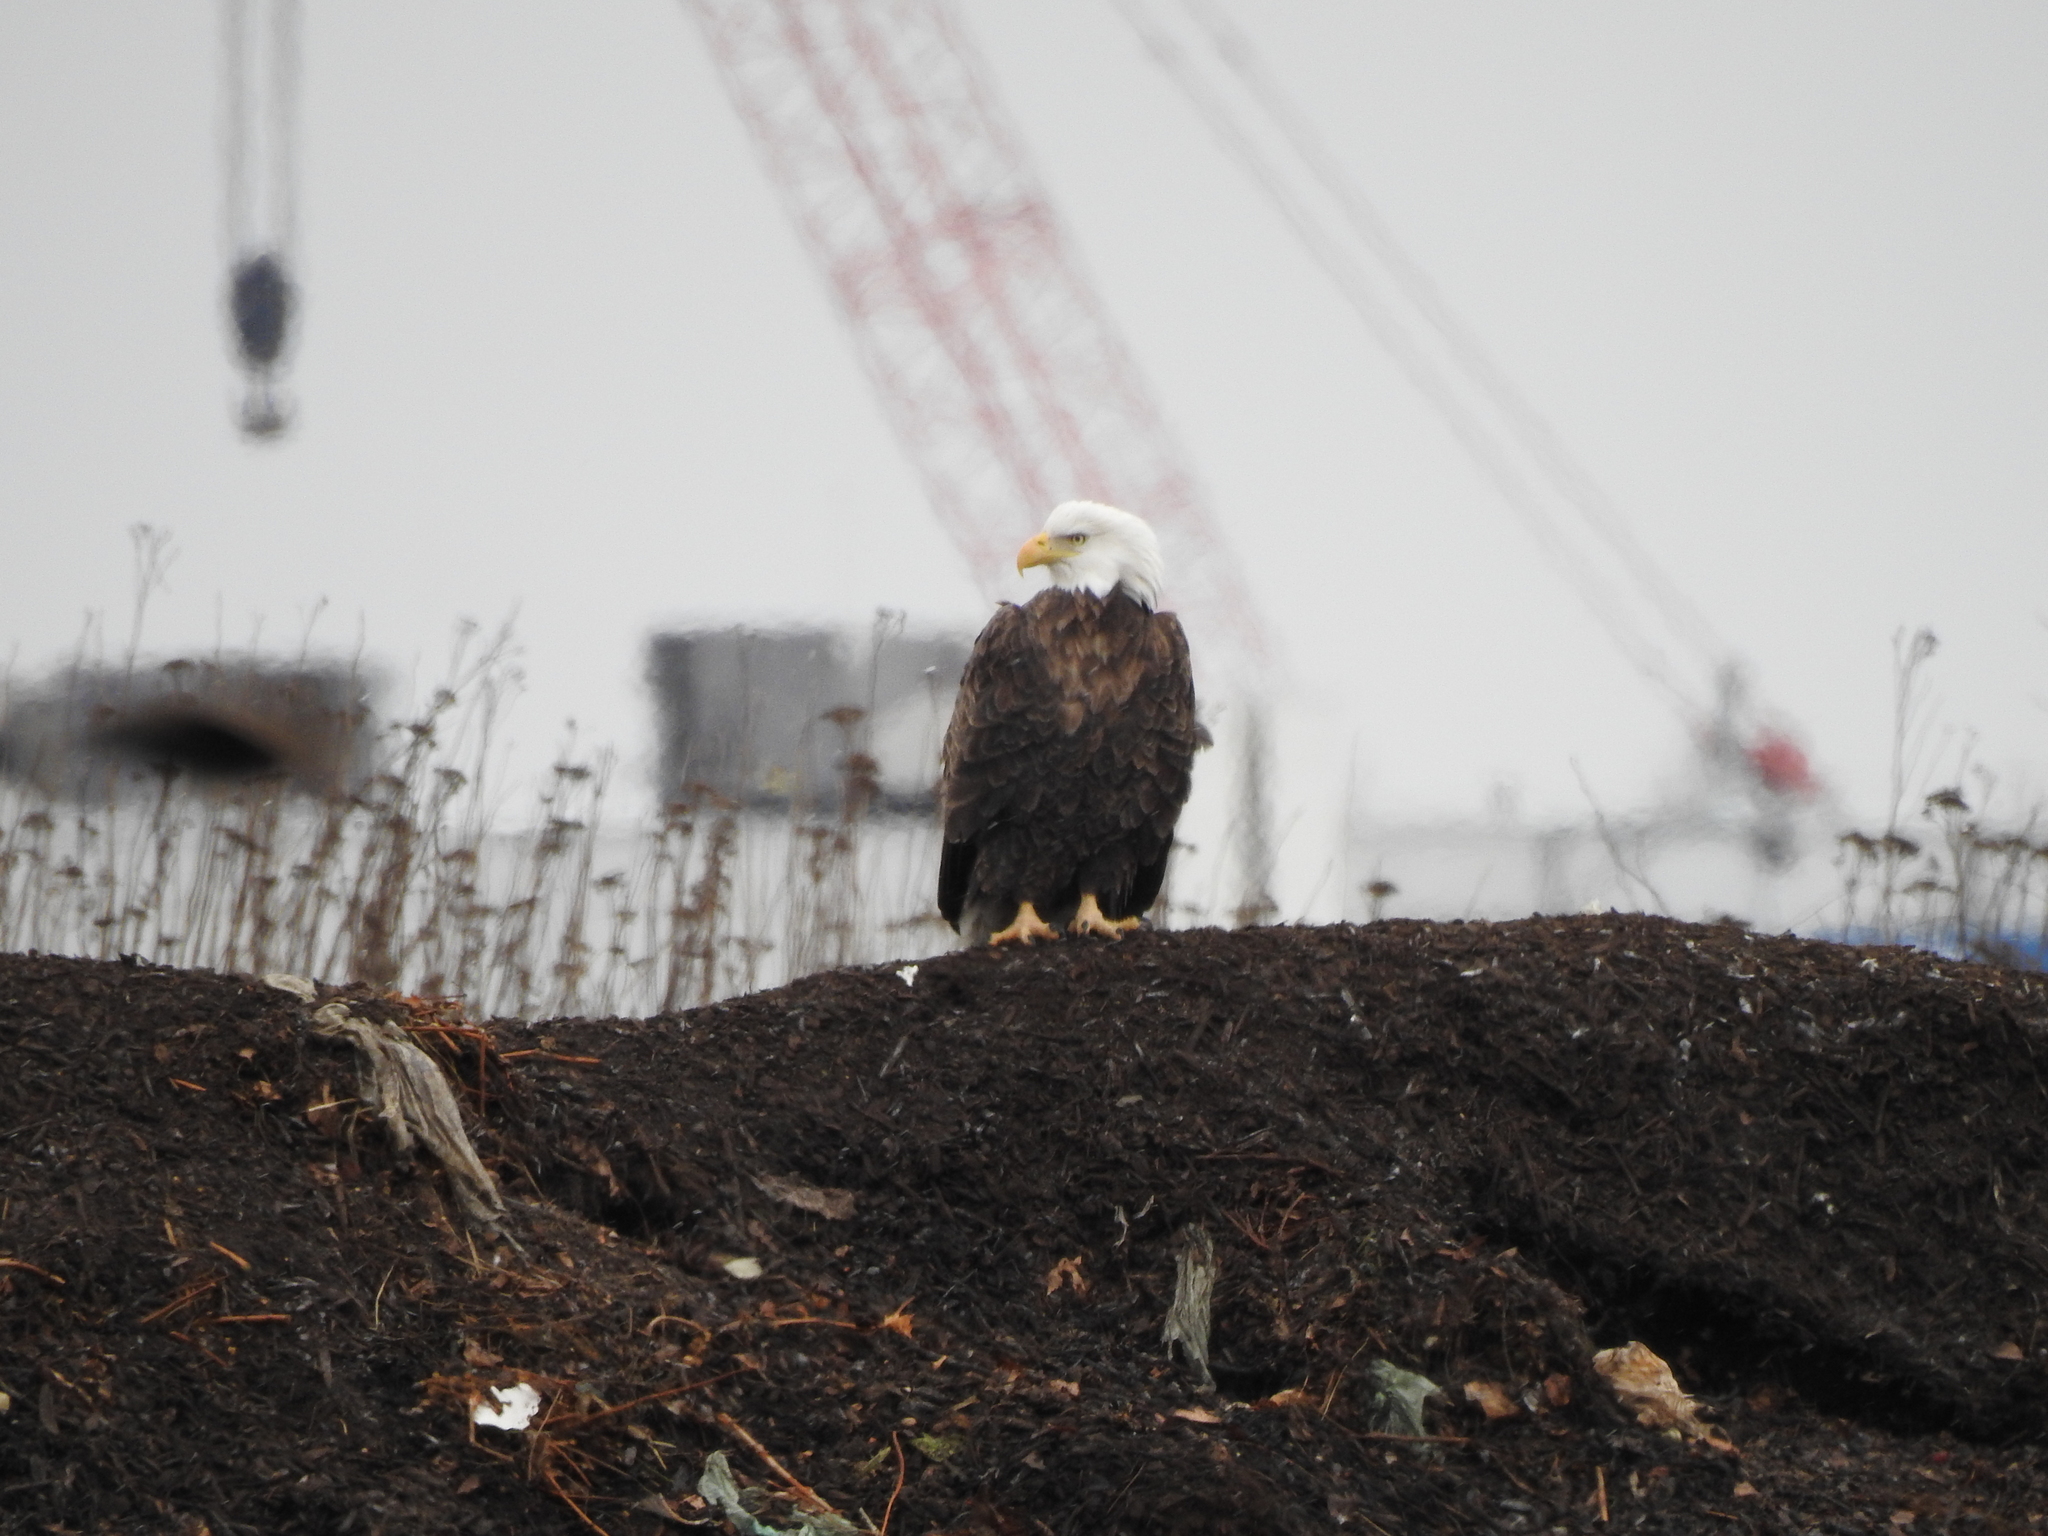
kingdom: Animalia
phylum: Chordata
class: Aves
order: Accipitriformes
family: Accipitridae
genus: Haliaeetus
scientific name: Haliaeetus leucocephalus
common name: Bald eagle
